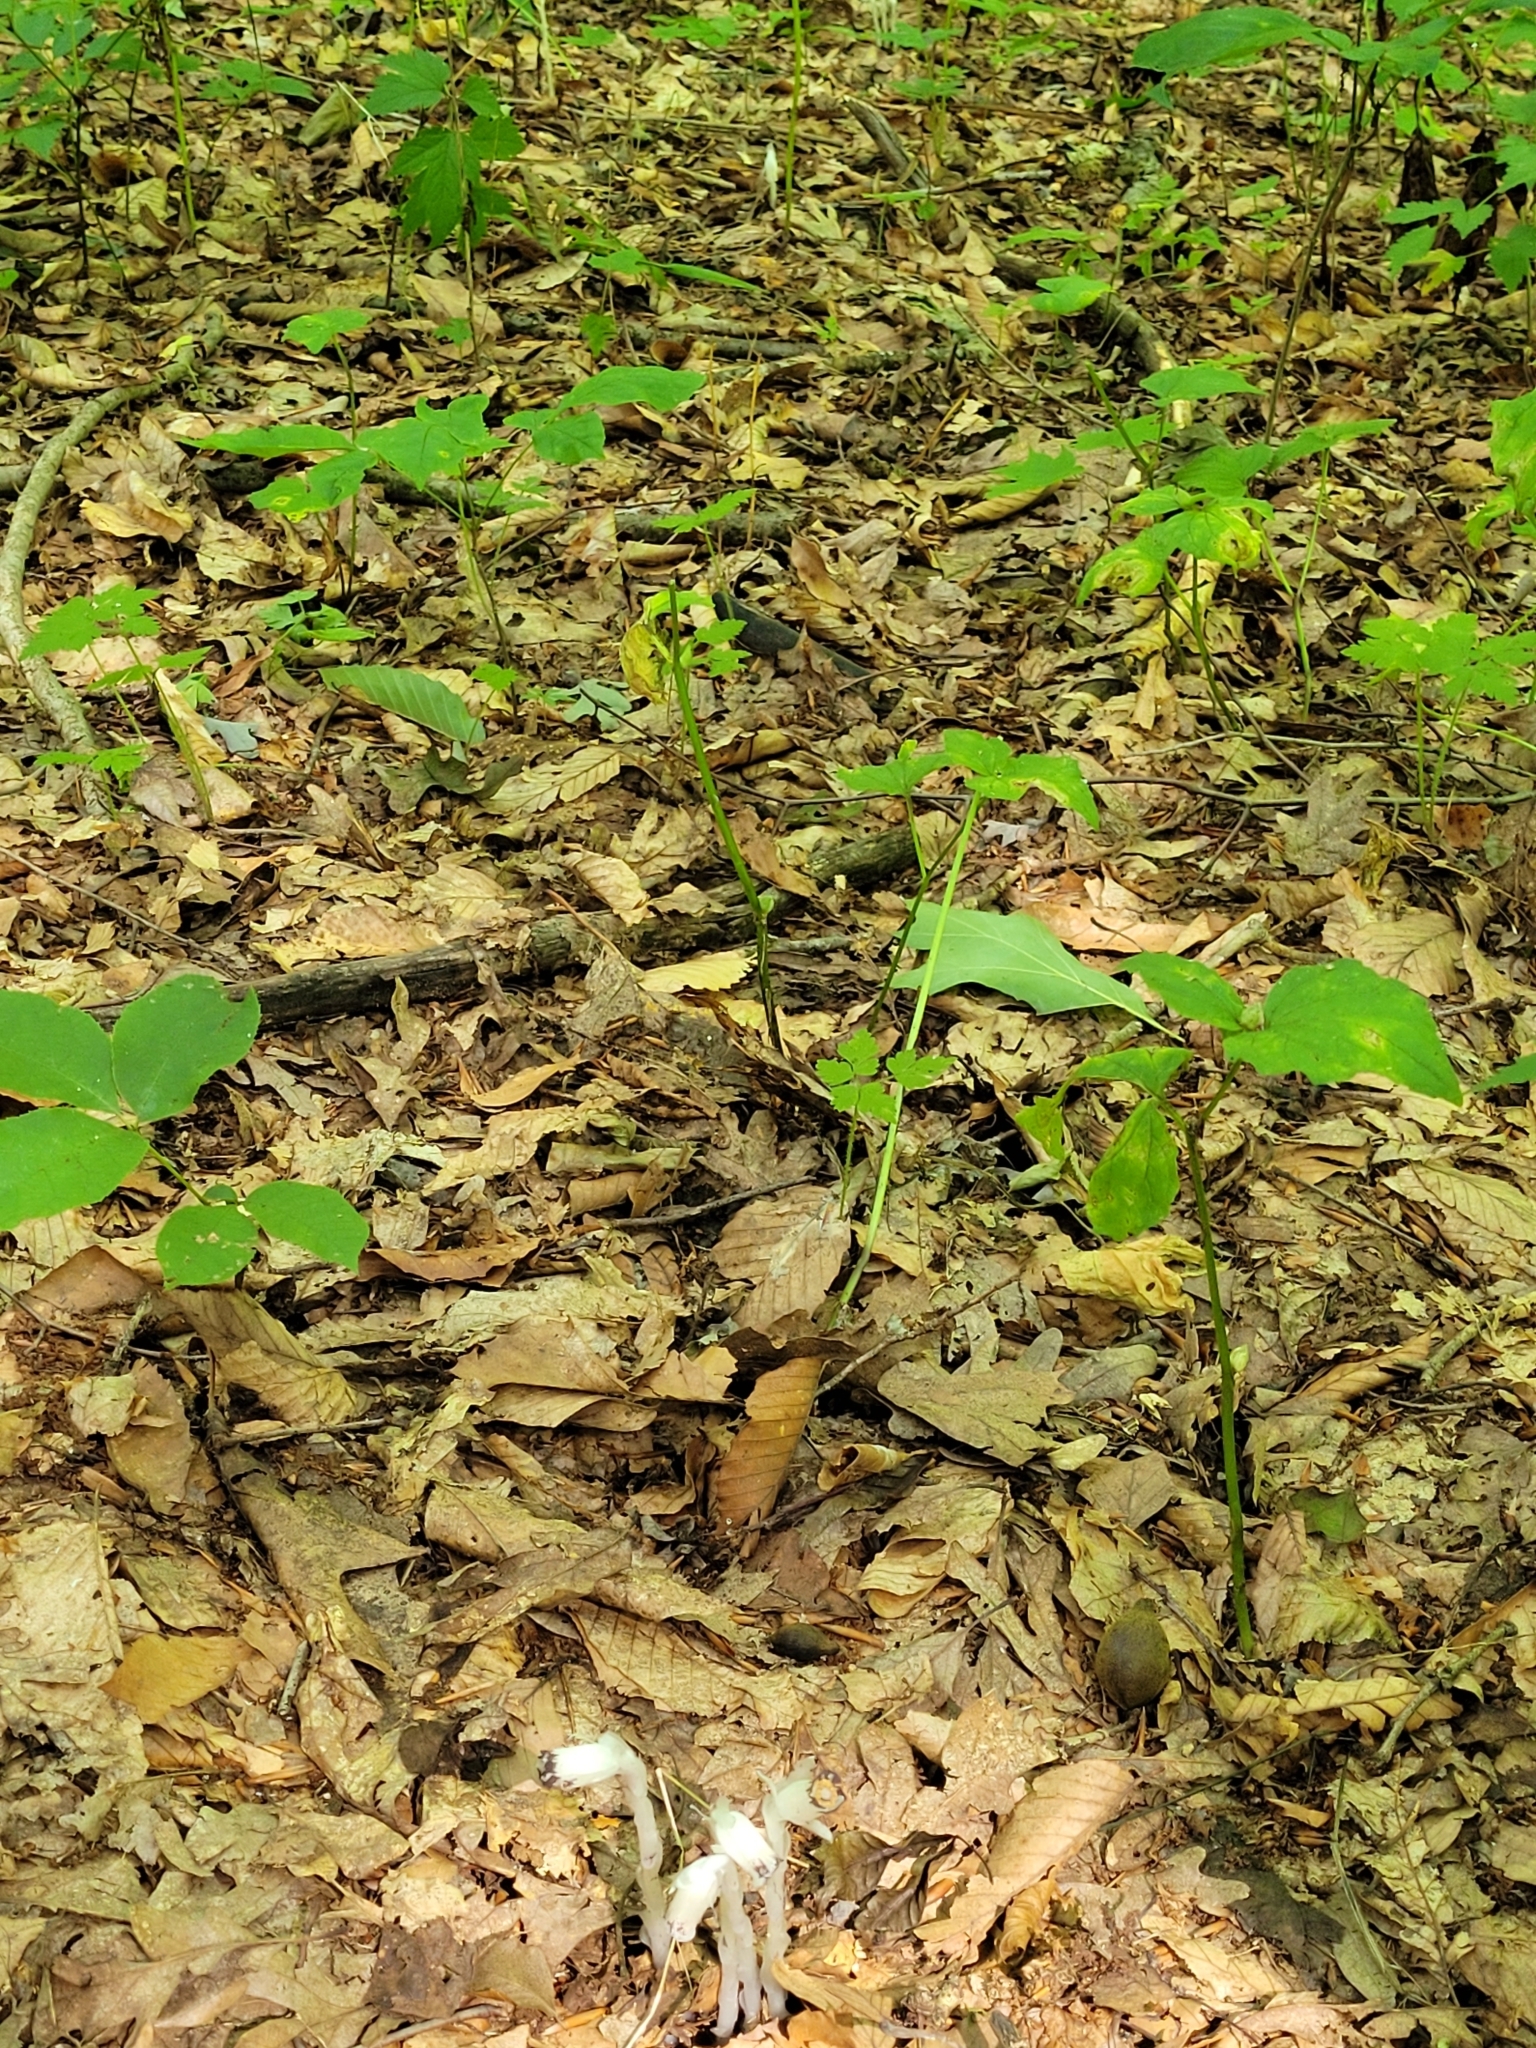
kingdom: Plantae
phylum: Tracheophyta
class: Magnoliopsida
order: Ericales
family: Ericaceae
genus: Monotropa
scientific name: Monotropa uniflora
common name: Convulsion root
